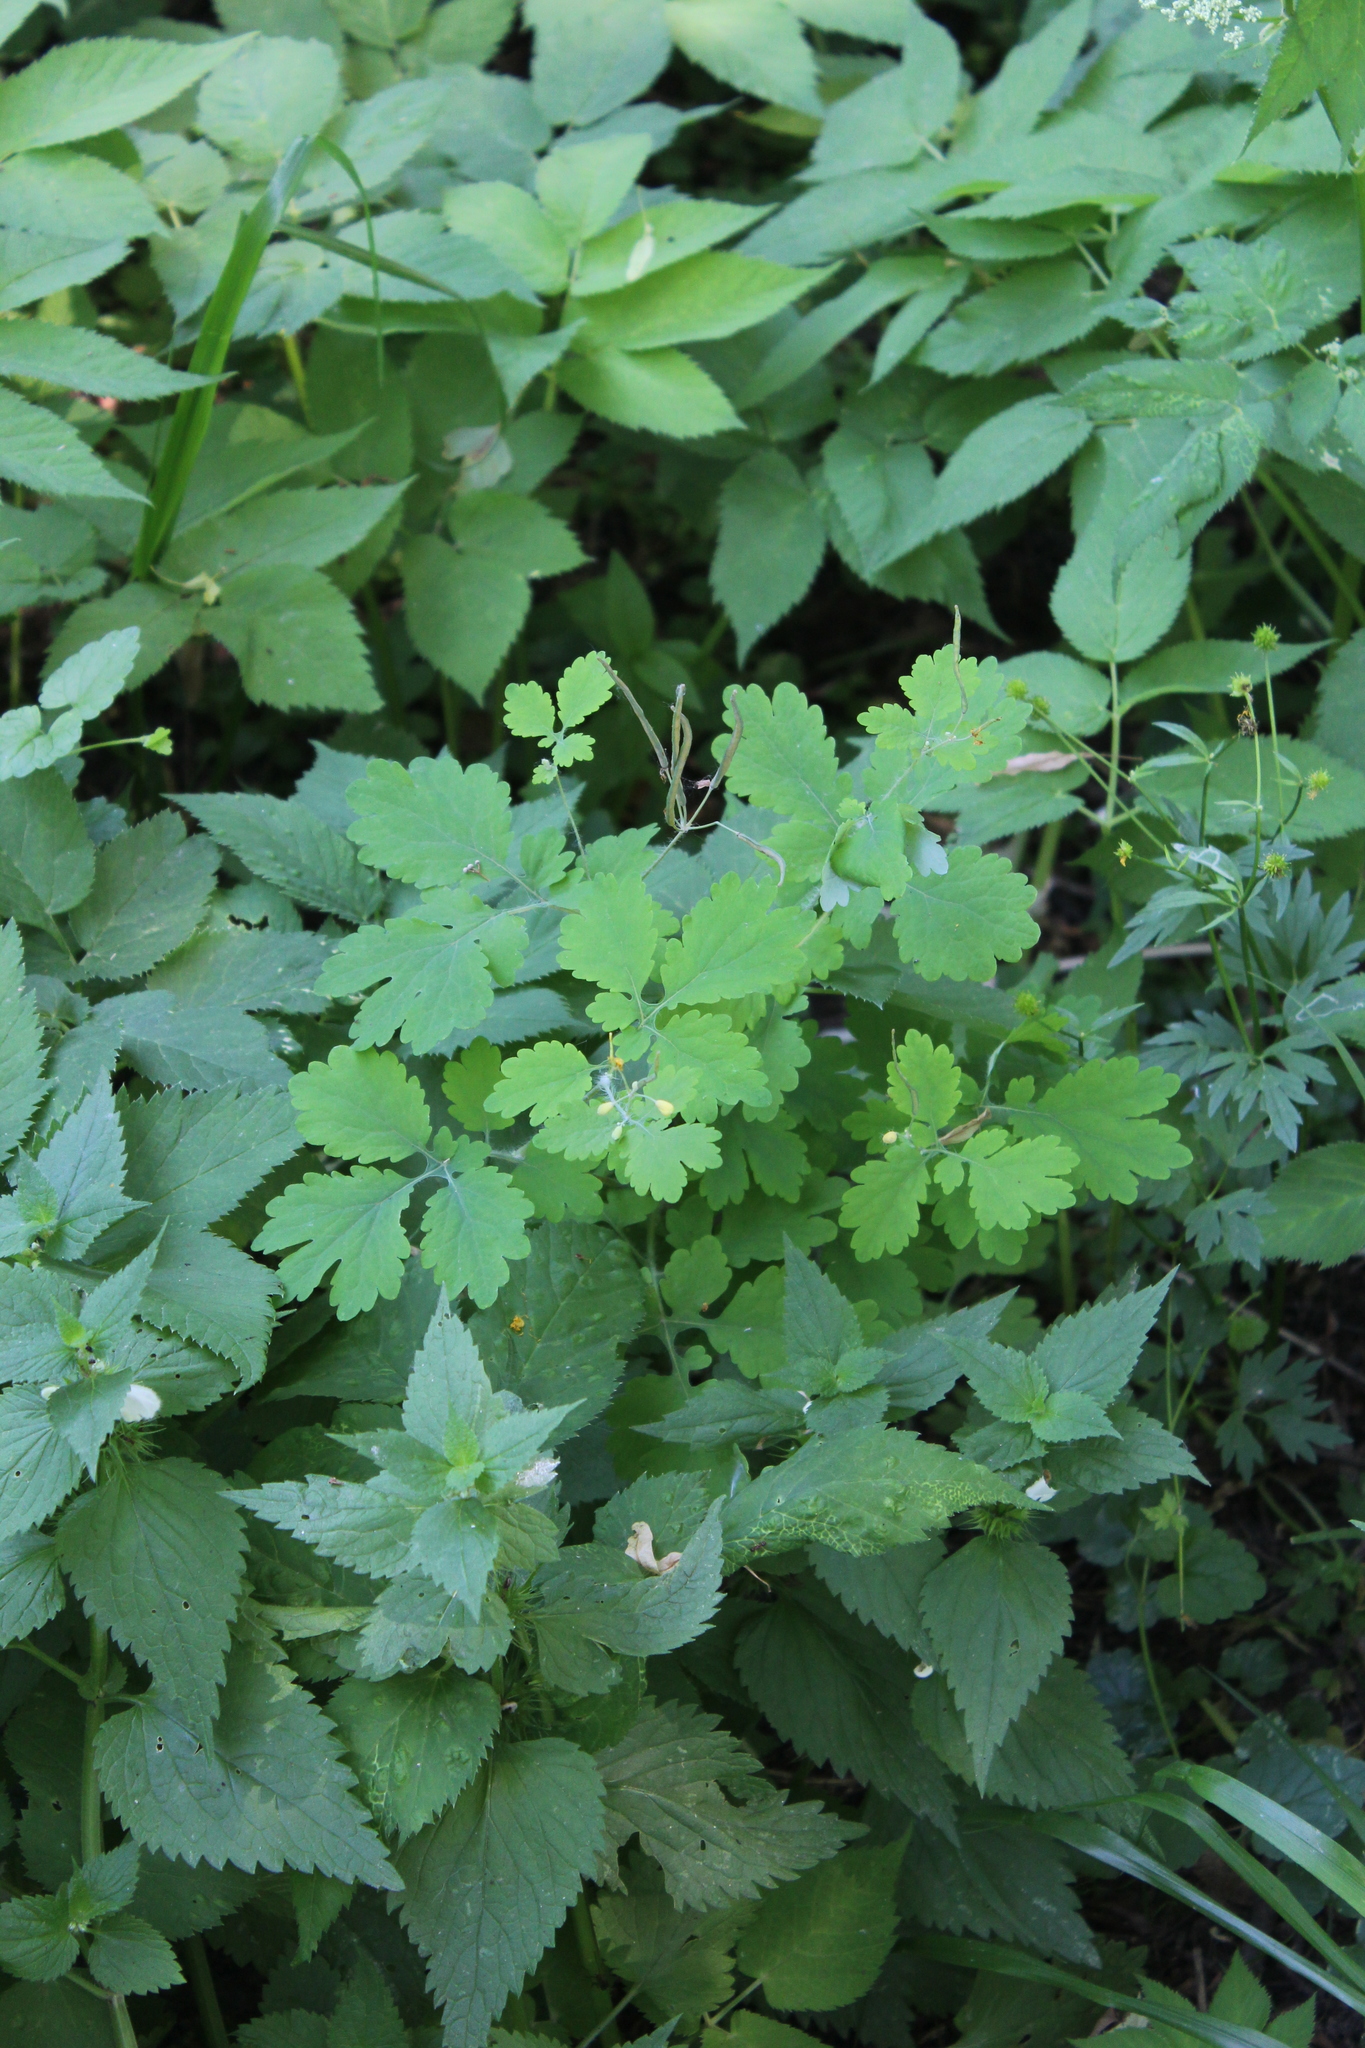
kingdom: Plantae
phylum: Tracheophyta
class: Magnoliopsida
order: Ranunculales
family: Papaveraceae
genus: Chelidonium
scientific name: Chelidonium majus
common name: Greater celandine
